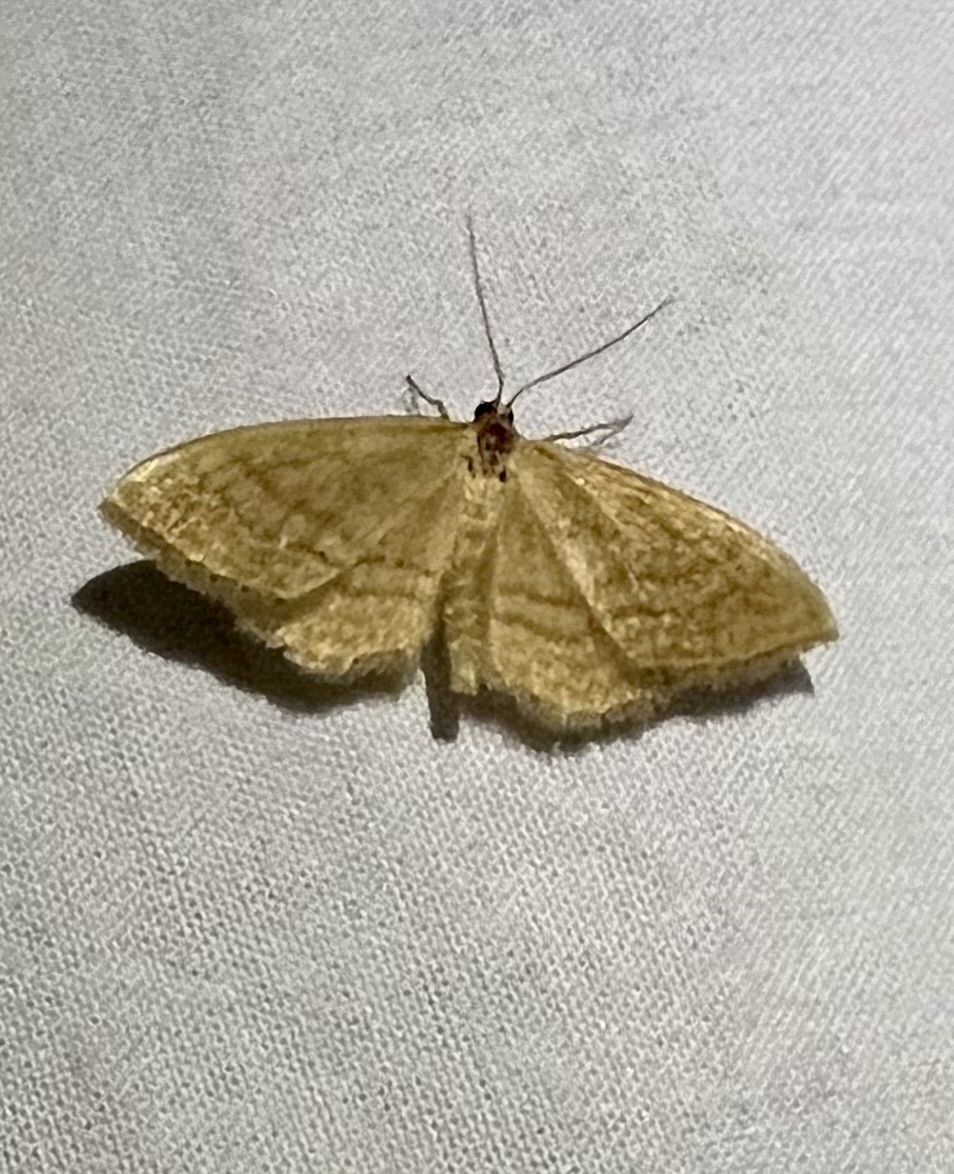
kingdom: Animalia
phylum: Arthropoda
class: Insecta
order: Lepidoptera
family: Geometridae
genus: Idaea
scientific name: Idaea ochrata
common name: Bright wave
